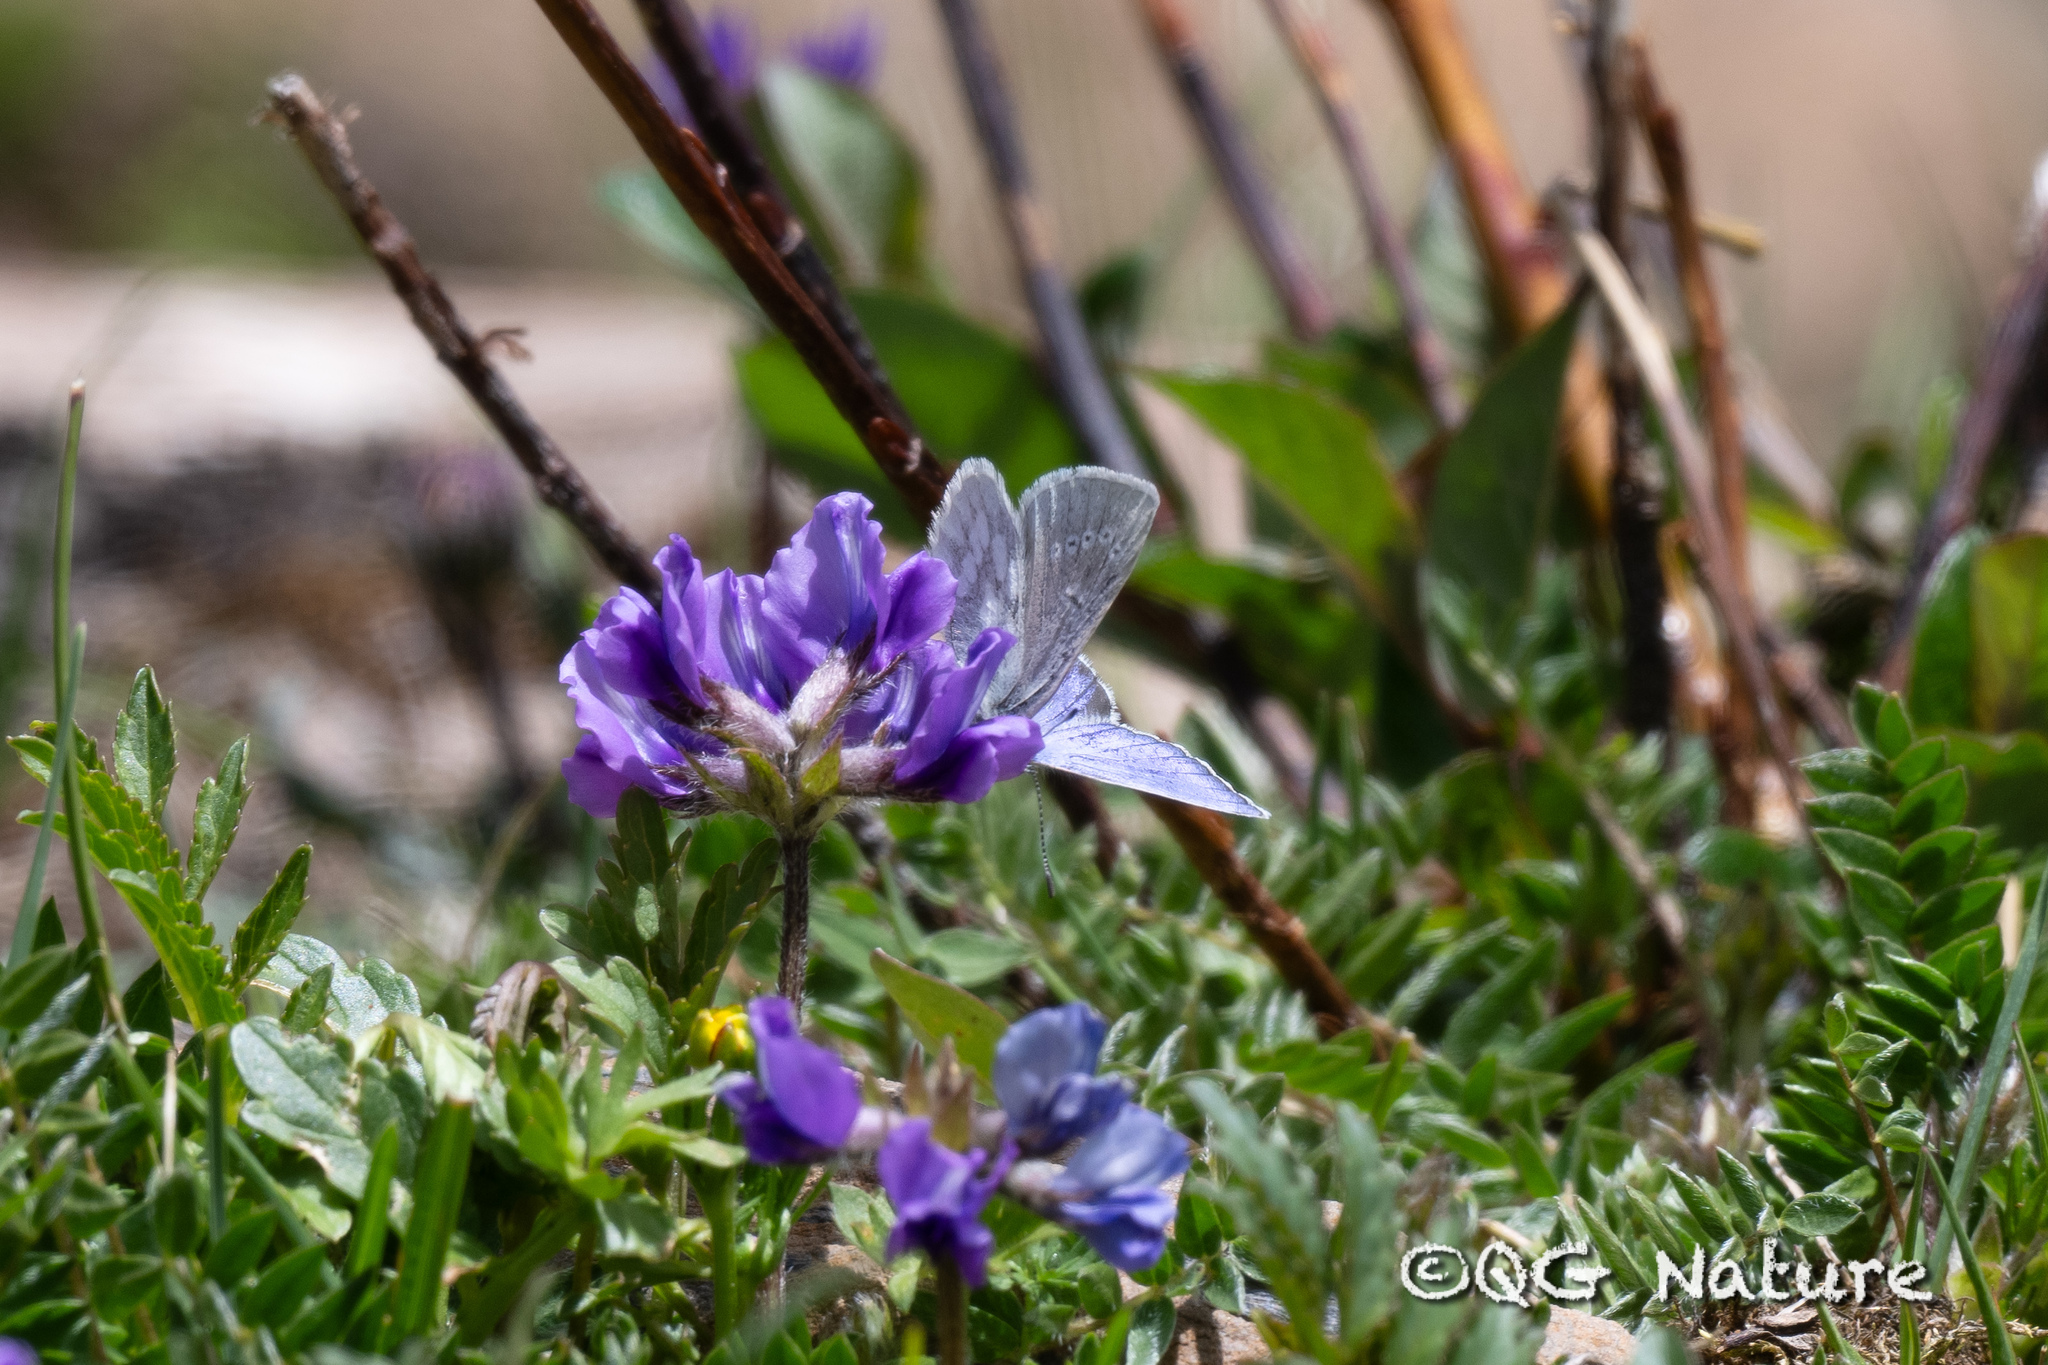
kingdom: Animalia
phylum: Arthropoda
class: Insecta
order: Lepidoptera
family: Lycaenidae
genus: Albulina
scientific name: Albulina orbitulus
